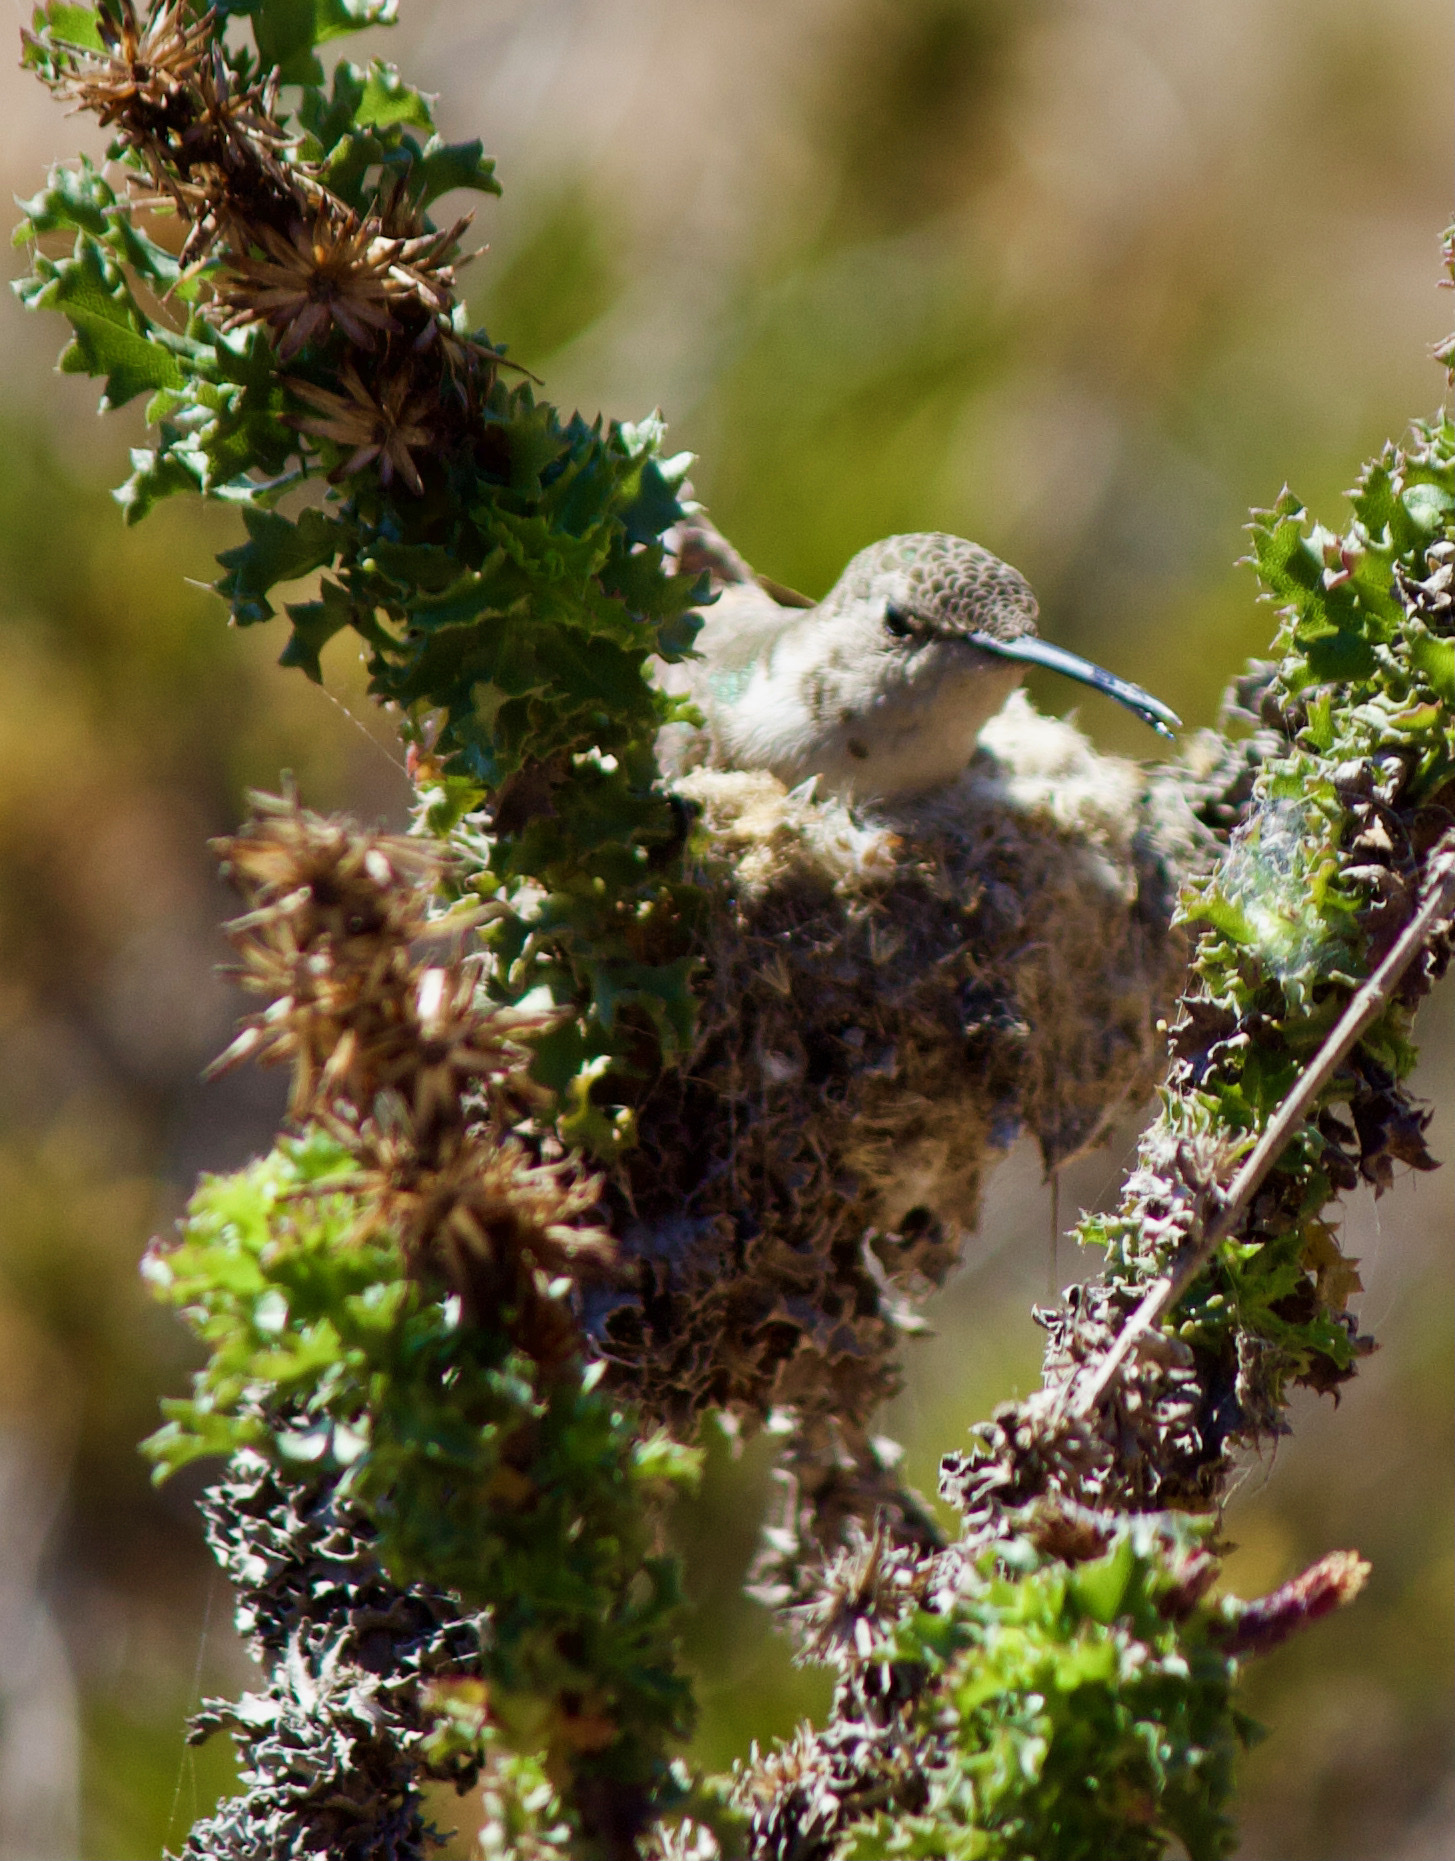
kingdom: Animalia
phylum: Chordata
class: Aves
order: Apodiformes
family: Trochilidae
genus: Rhodopis
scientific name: Rhodopis vesper
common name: Oasis hummingbird
